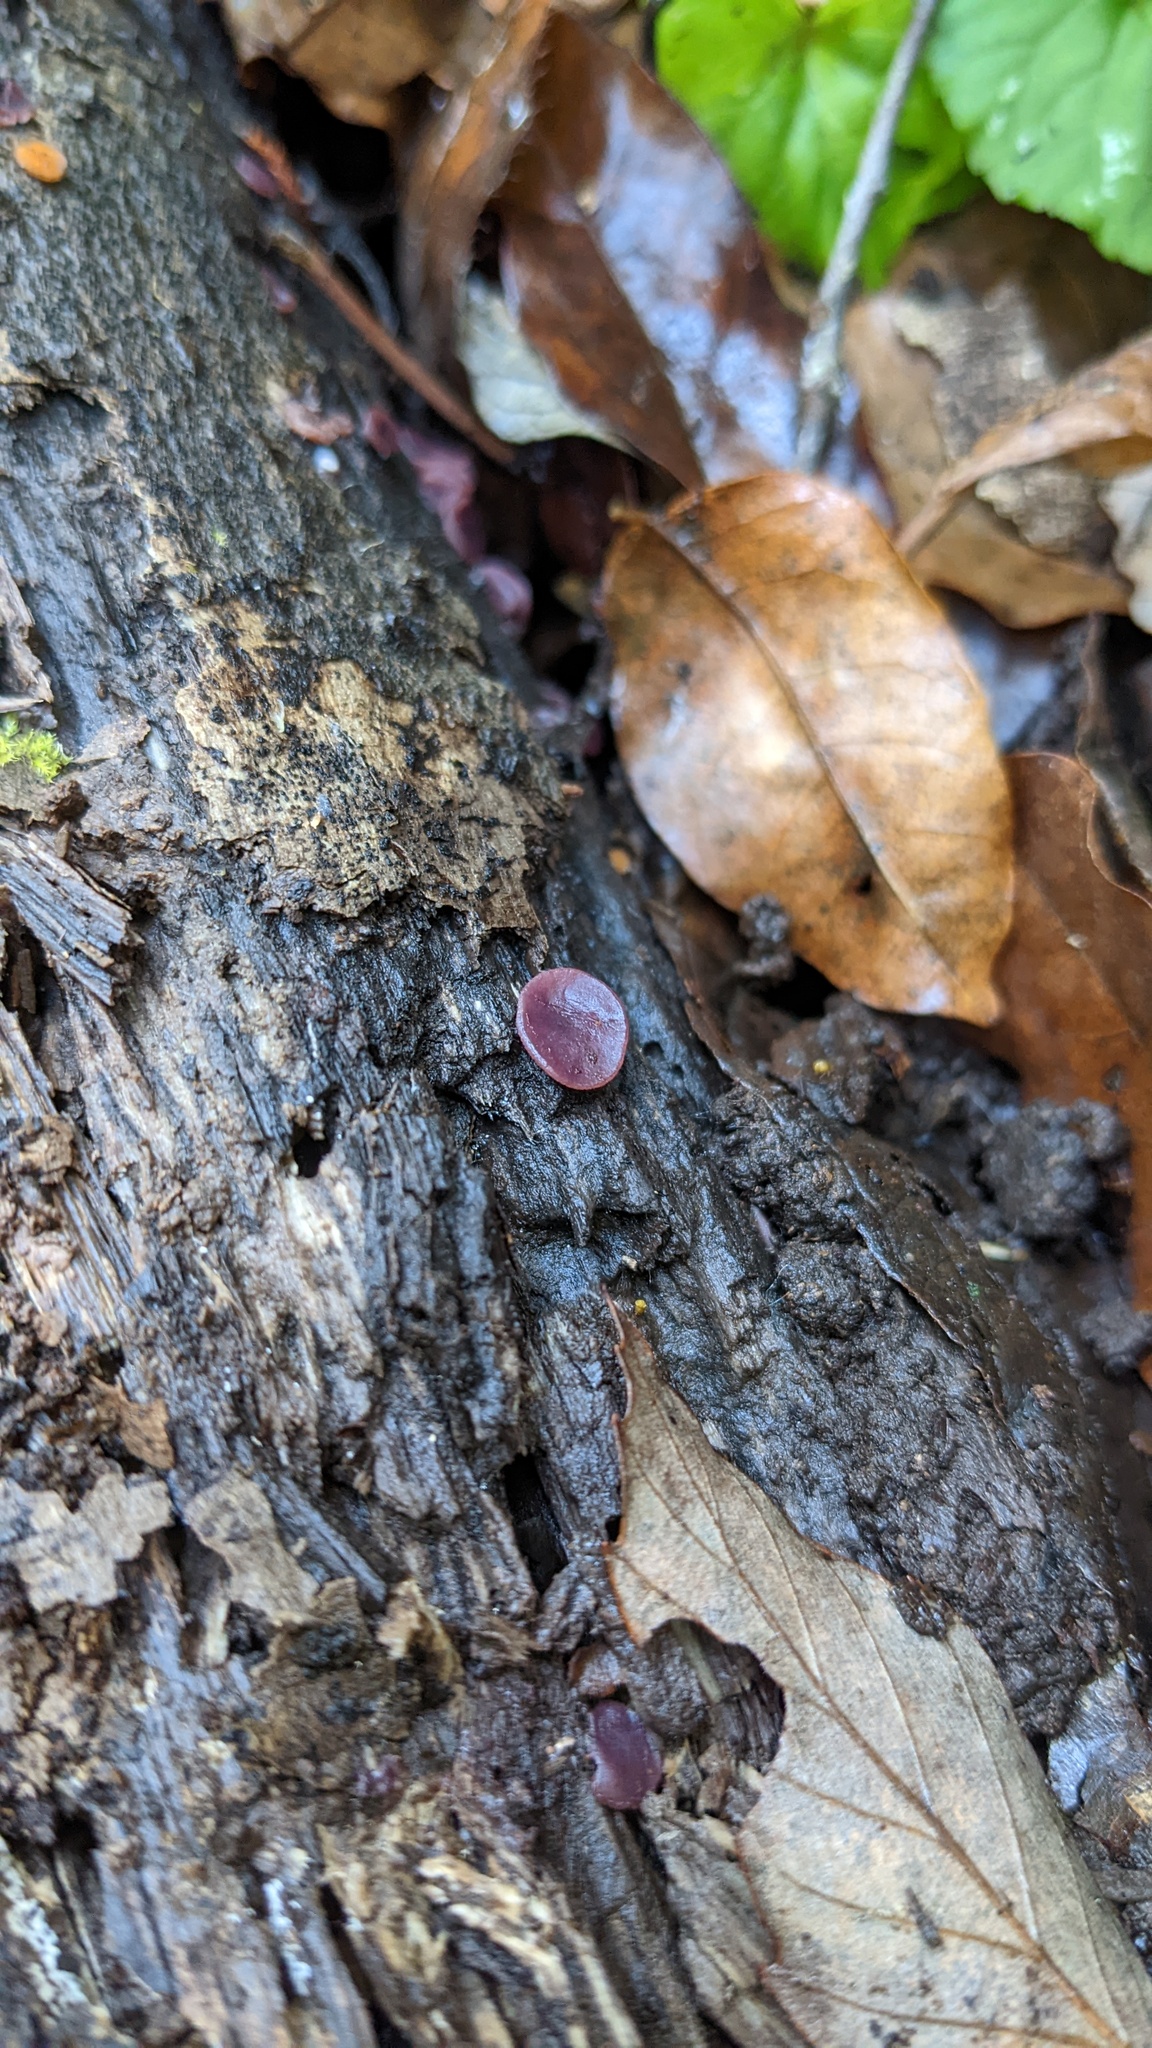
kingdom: Fungi
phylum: Ascomycota
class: Leotiomycetes
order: Helotiales
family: Gelatinodiscaceae
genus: Ascocoryne
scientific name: Ascocoryne cylichnium
